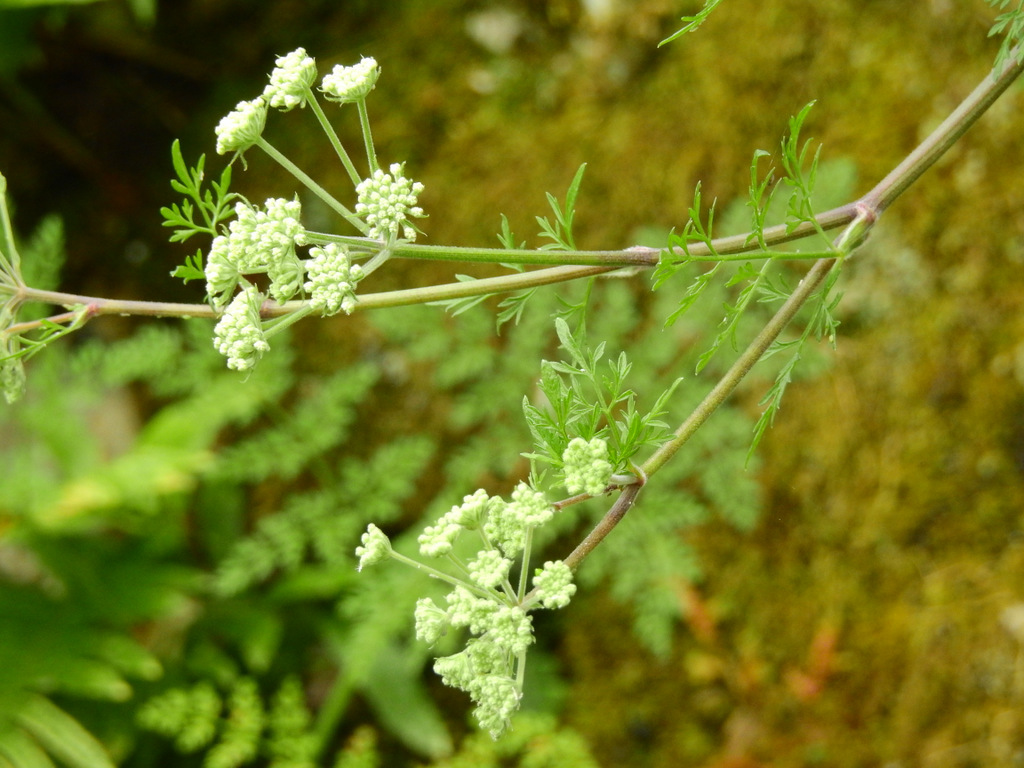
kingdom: Plantae
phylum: Tracheophyta
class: Magnoliopsida
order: Apiales
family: Apiaceae
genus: Athamanta
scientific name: Athamanta sicula
